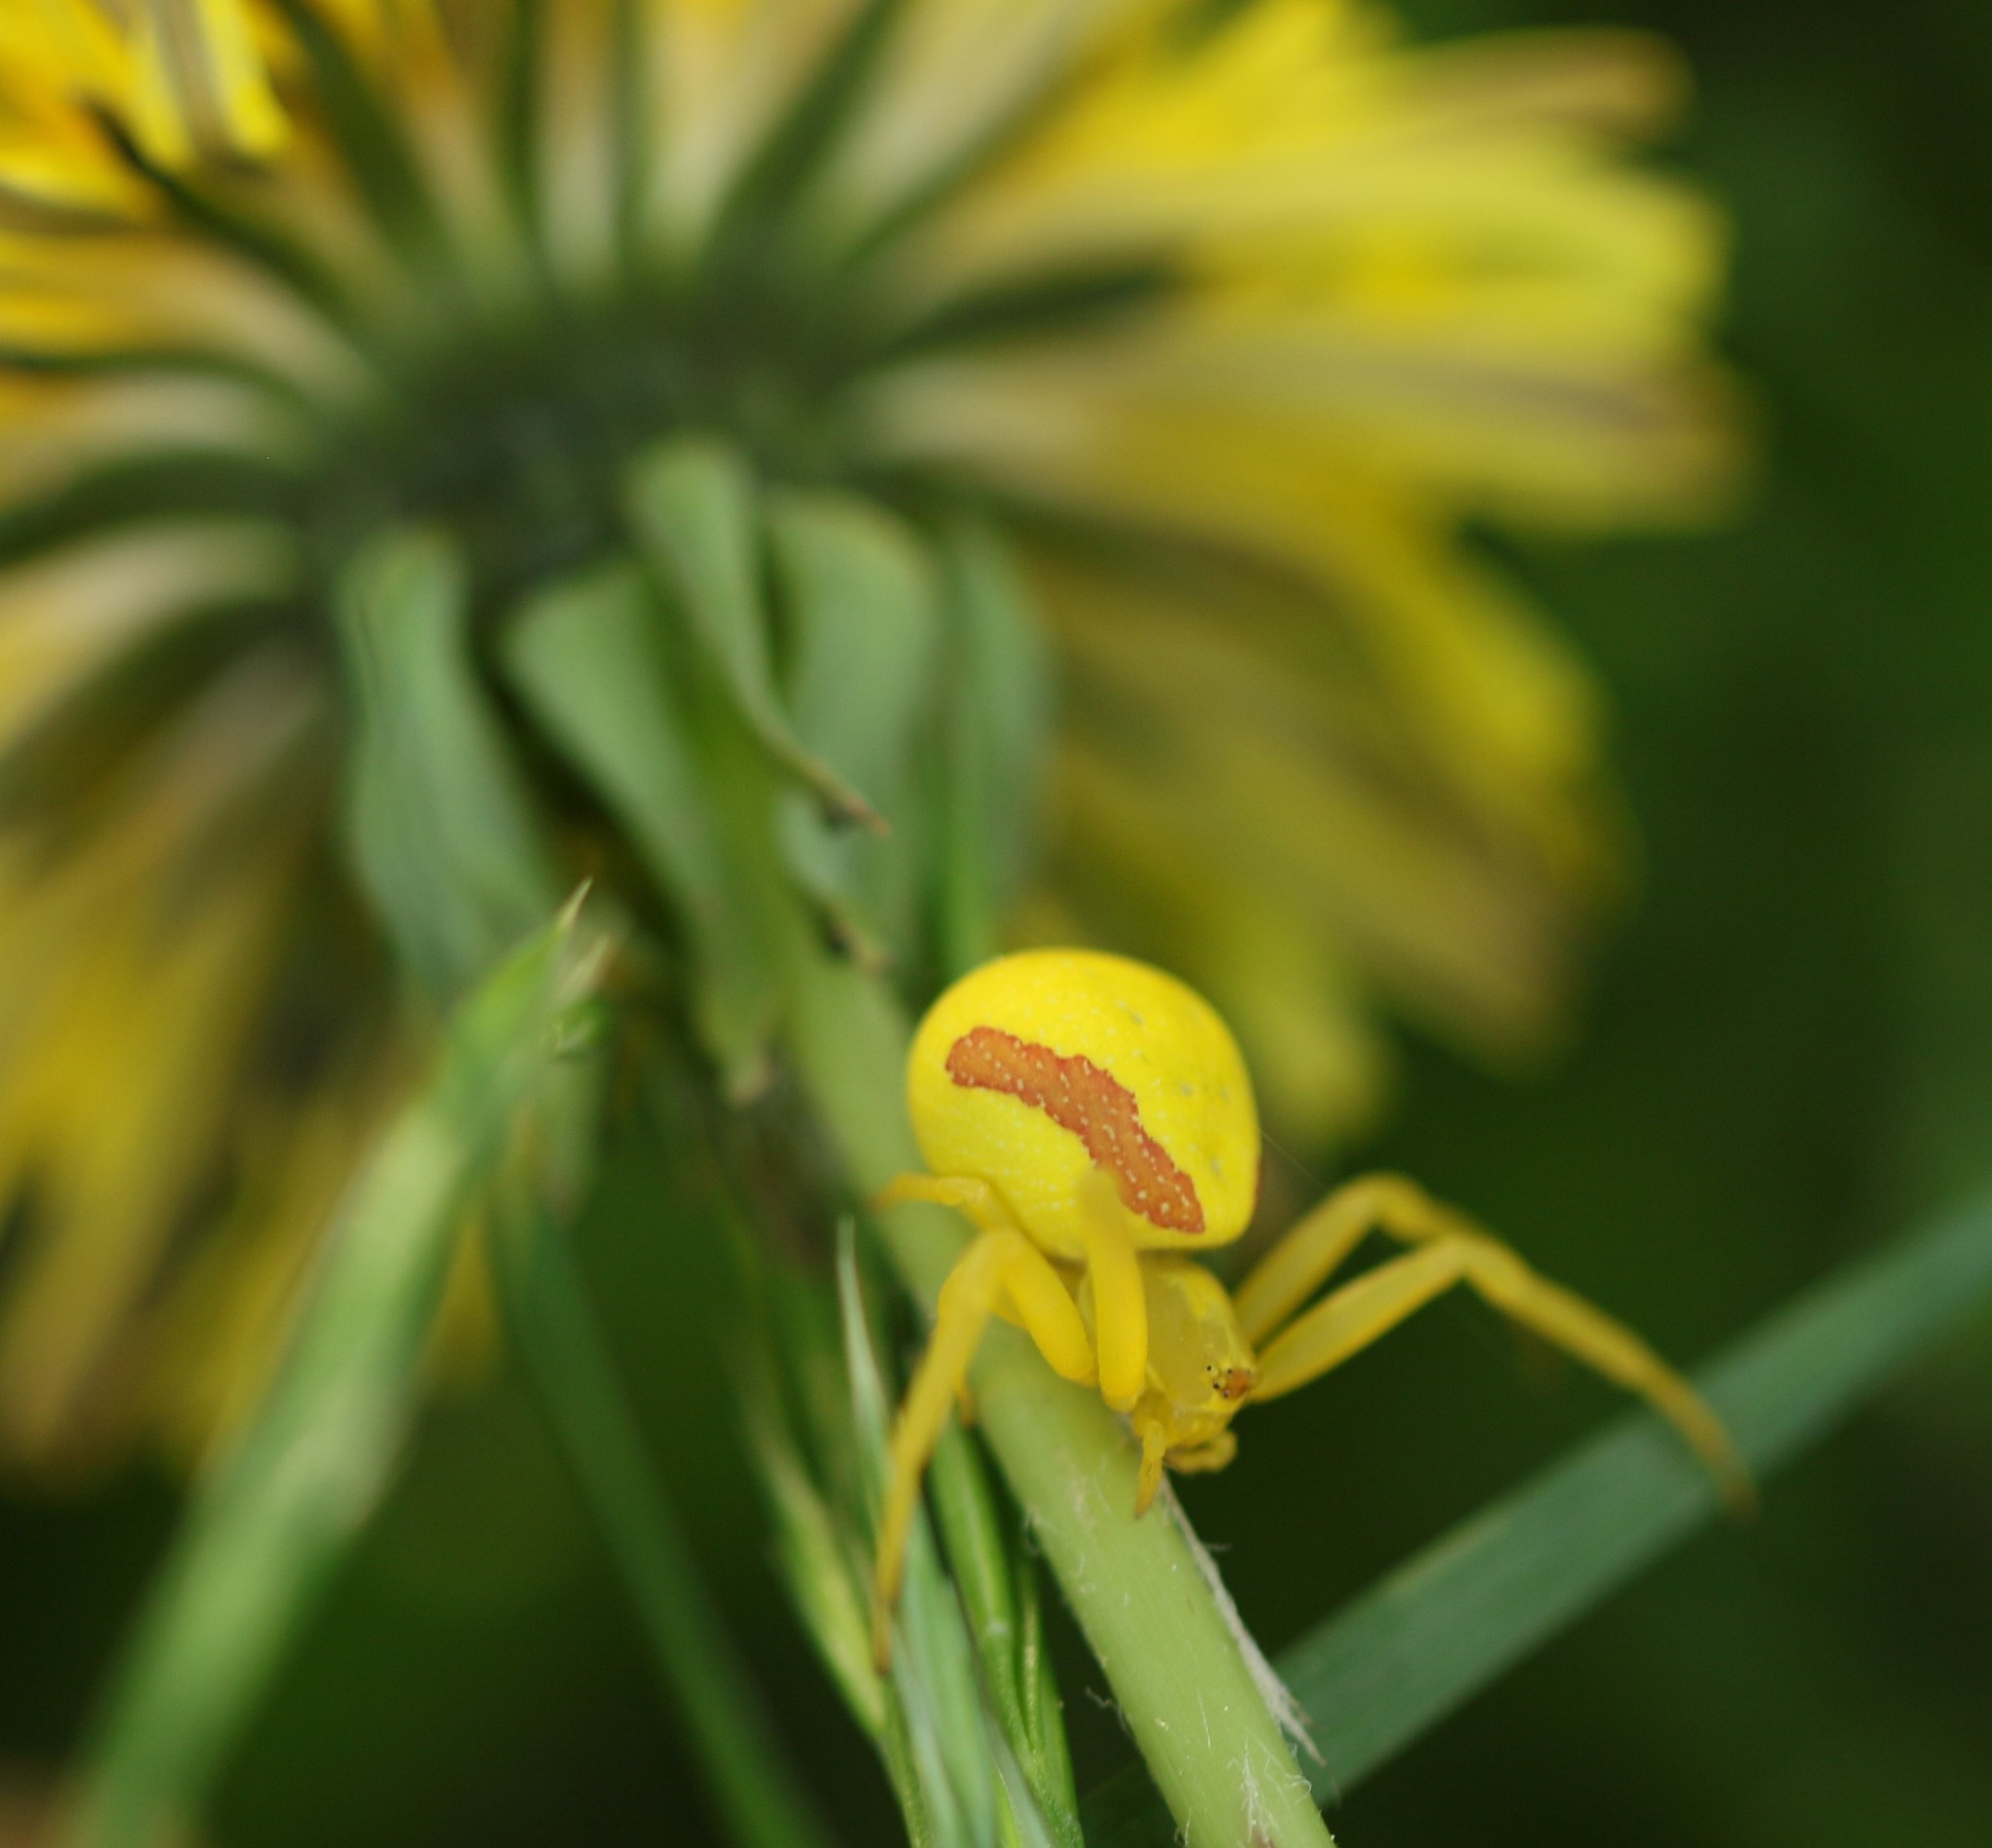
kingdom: Animalia
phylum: Arthropoda
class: Arachnida
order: Araneae
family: Thomisidae
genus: Misumena
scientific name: Misumena vatia
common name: Goldenrod crab spider
